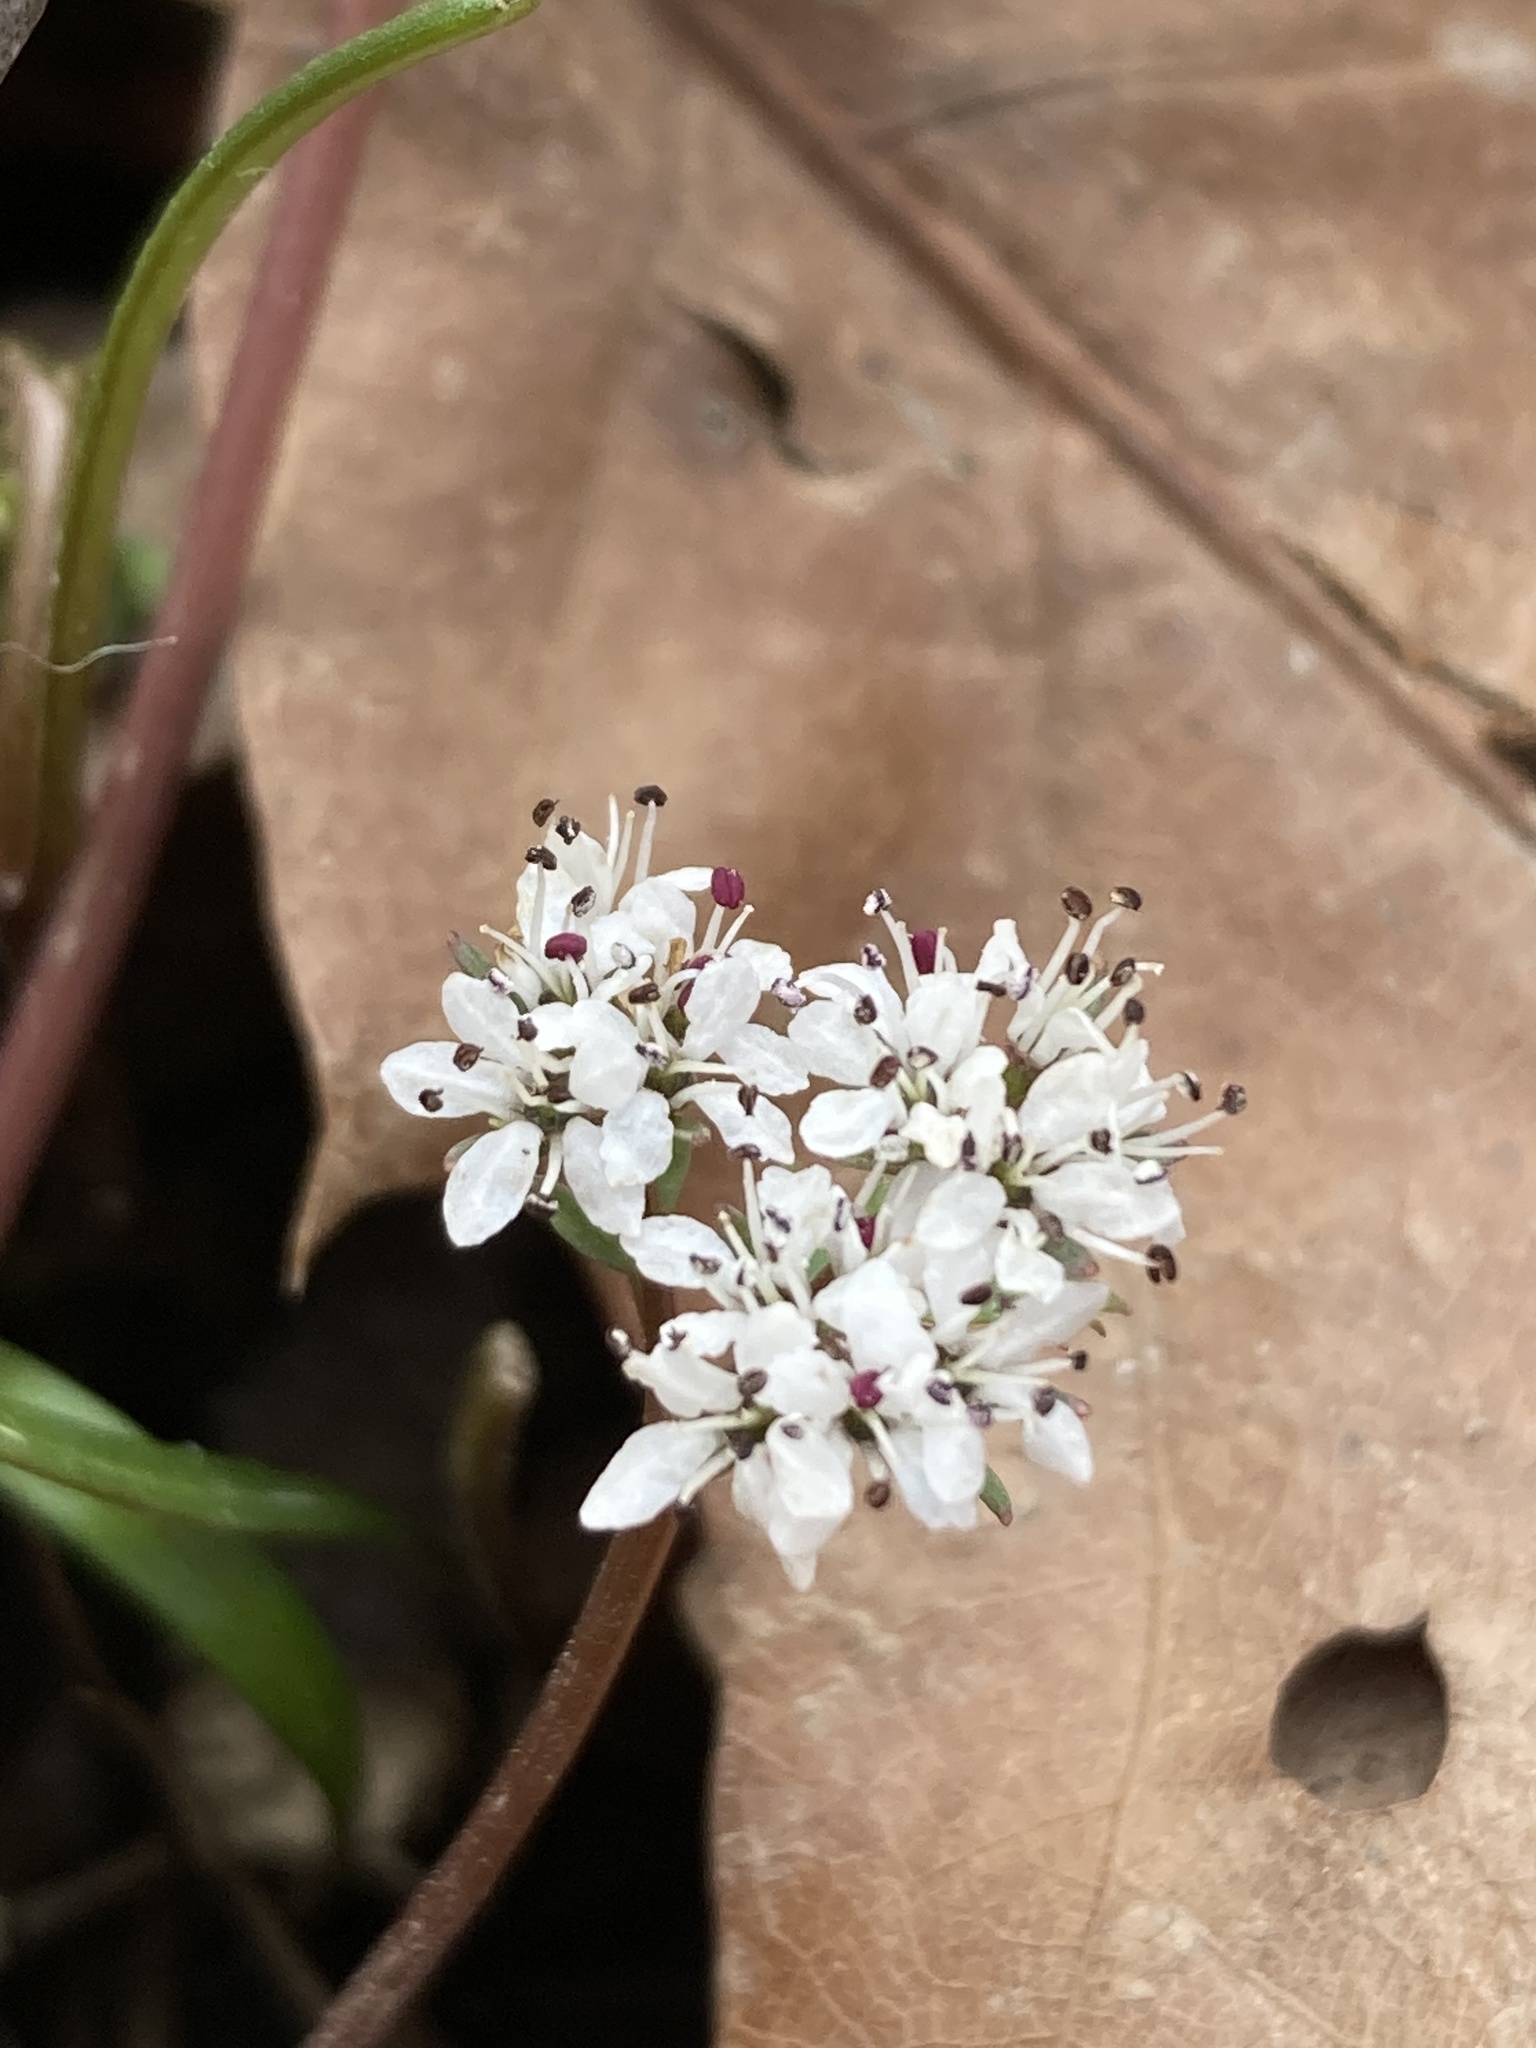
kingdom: Plantae
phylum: Tracheophyta
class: Magnoliopsida
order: Apiales
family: Apiaceae
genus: Erigenia
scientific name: Erigenia bulbosa
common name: Pepper-and-salt
